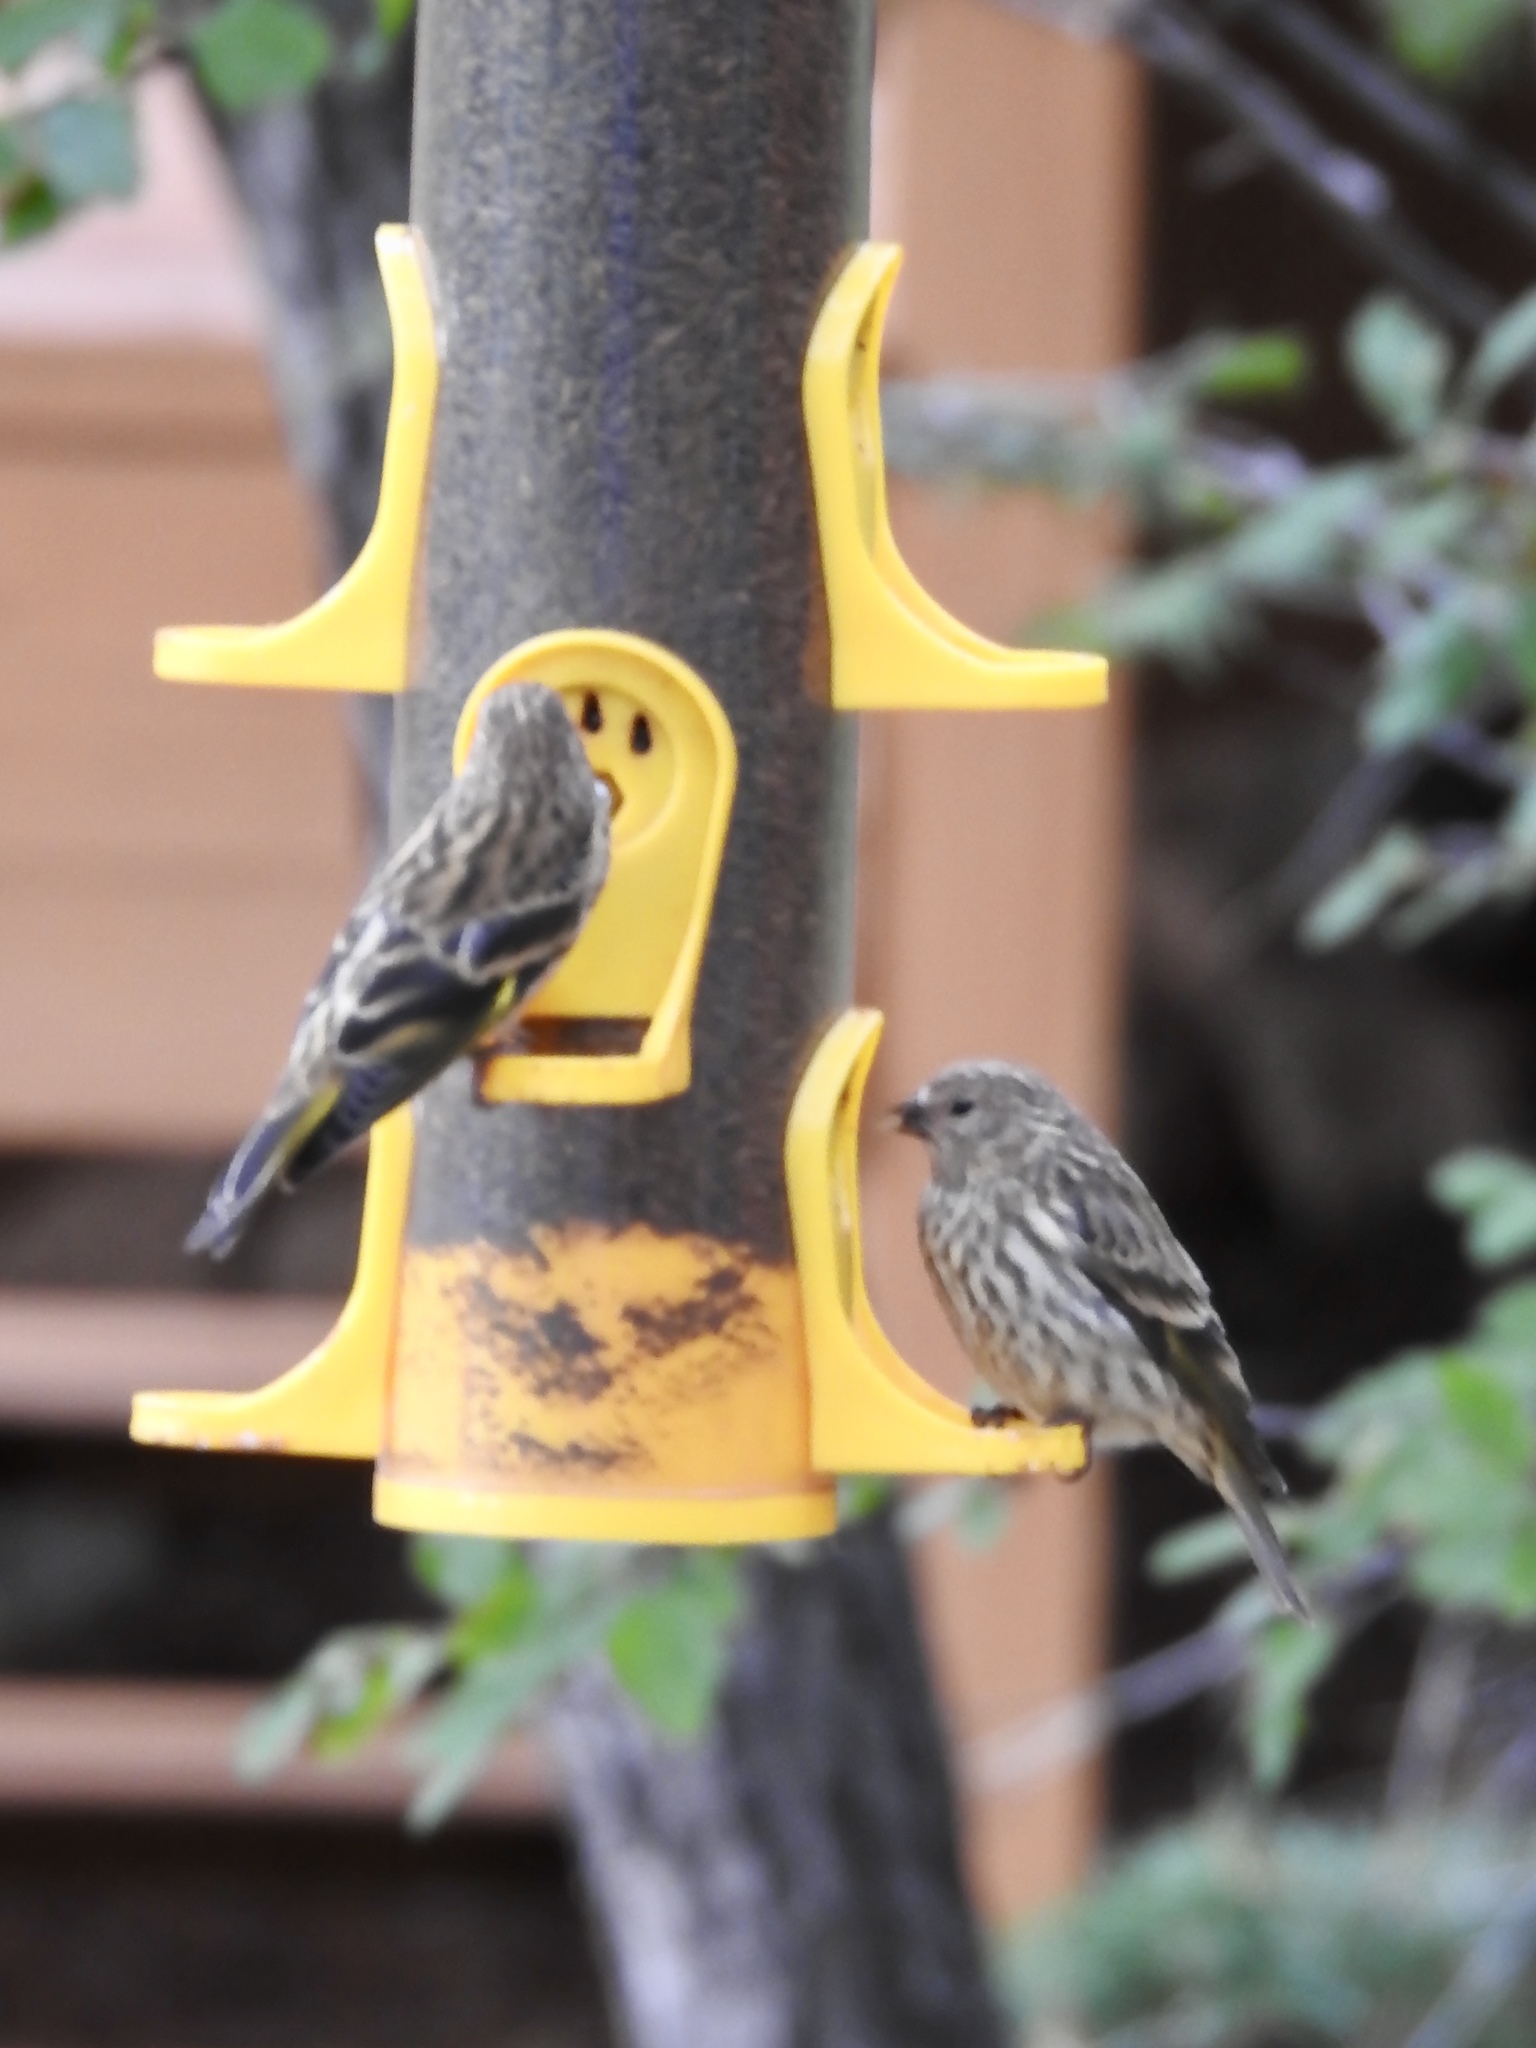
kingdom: Animalia
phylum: Chordata
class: Aves
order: Passeriformes
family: Fringillidae
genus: Spinus
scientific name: Spinus pinus
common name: Pine siskin
